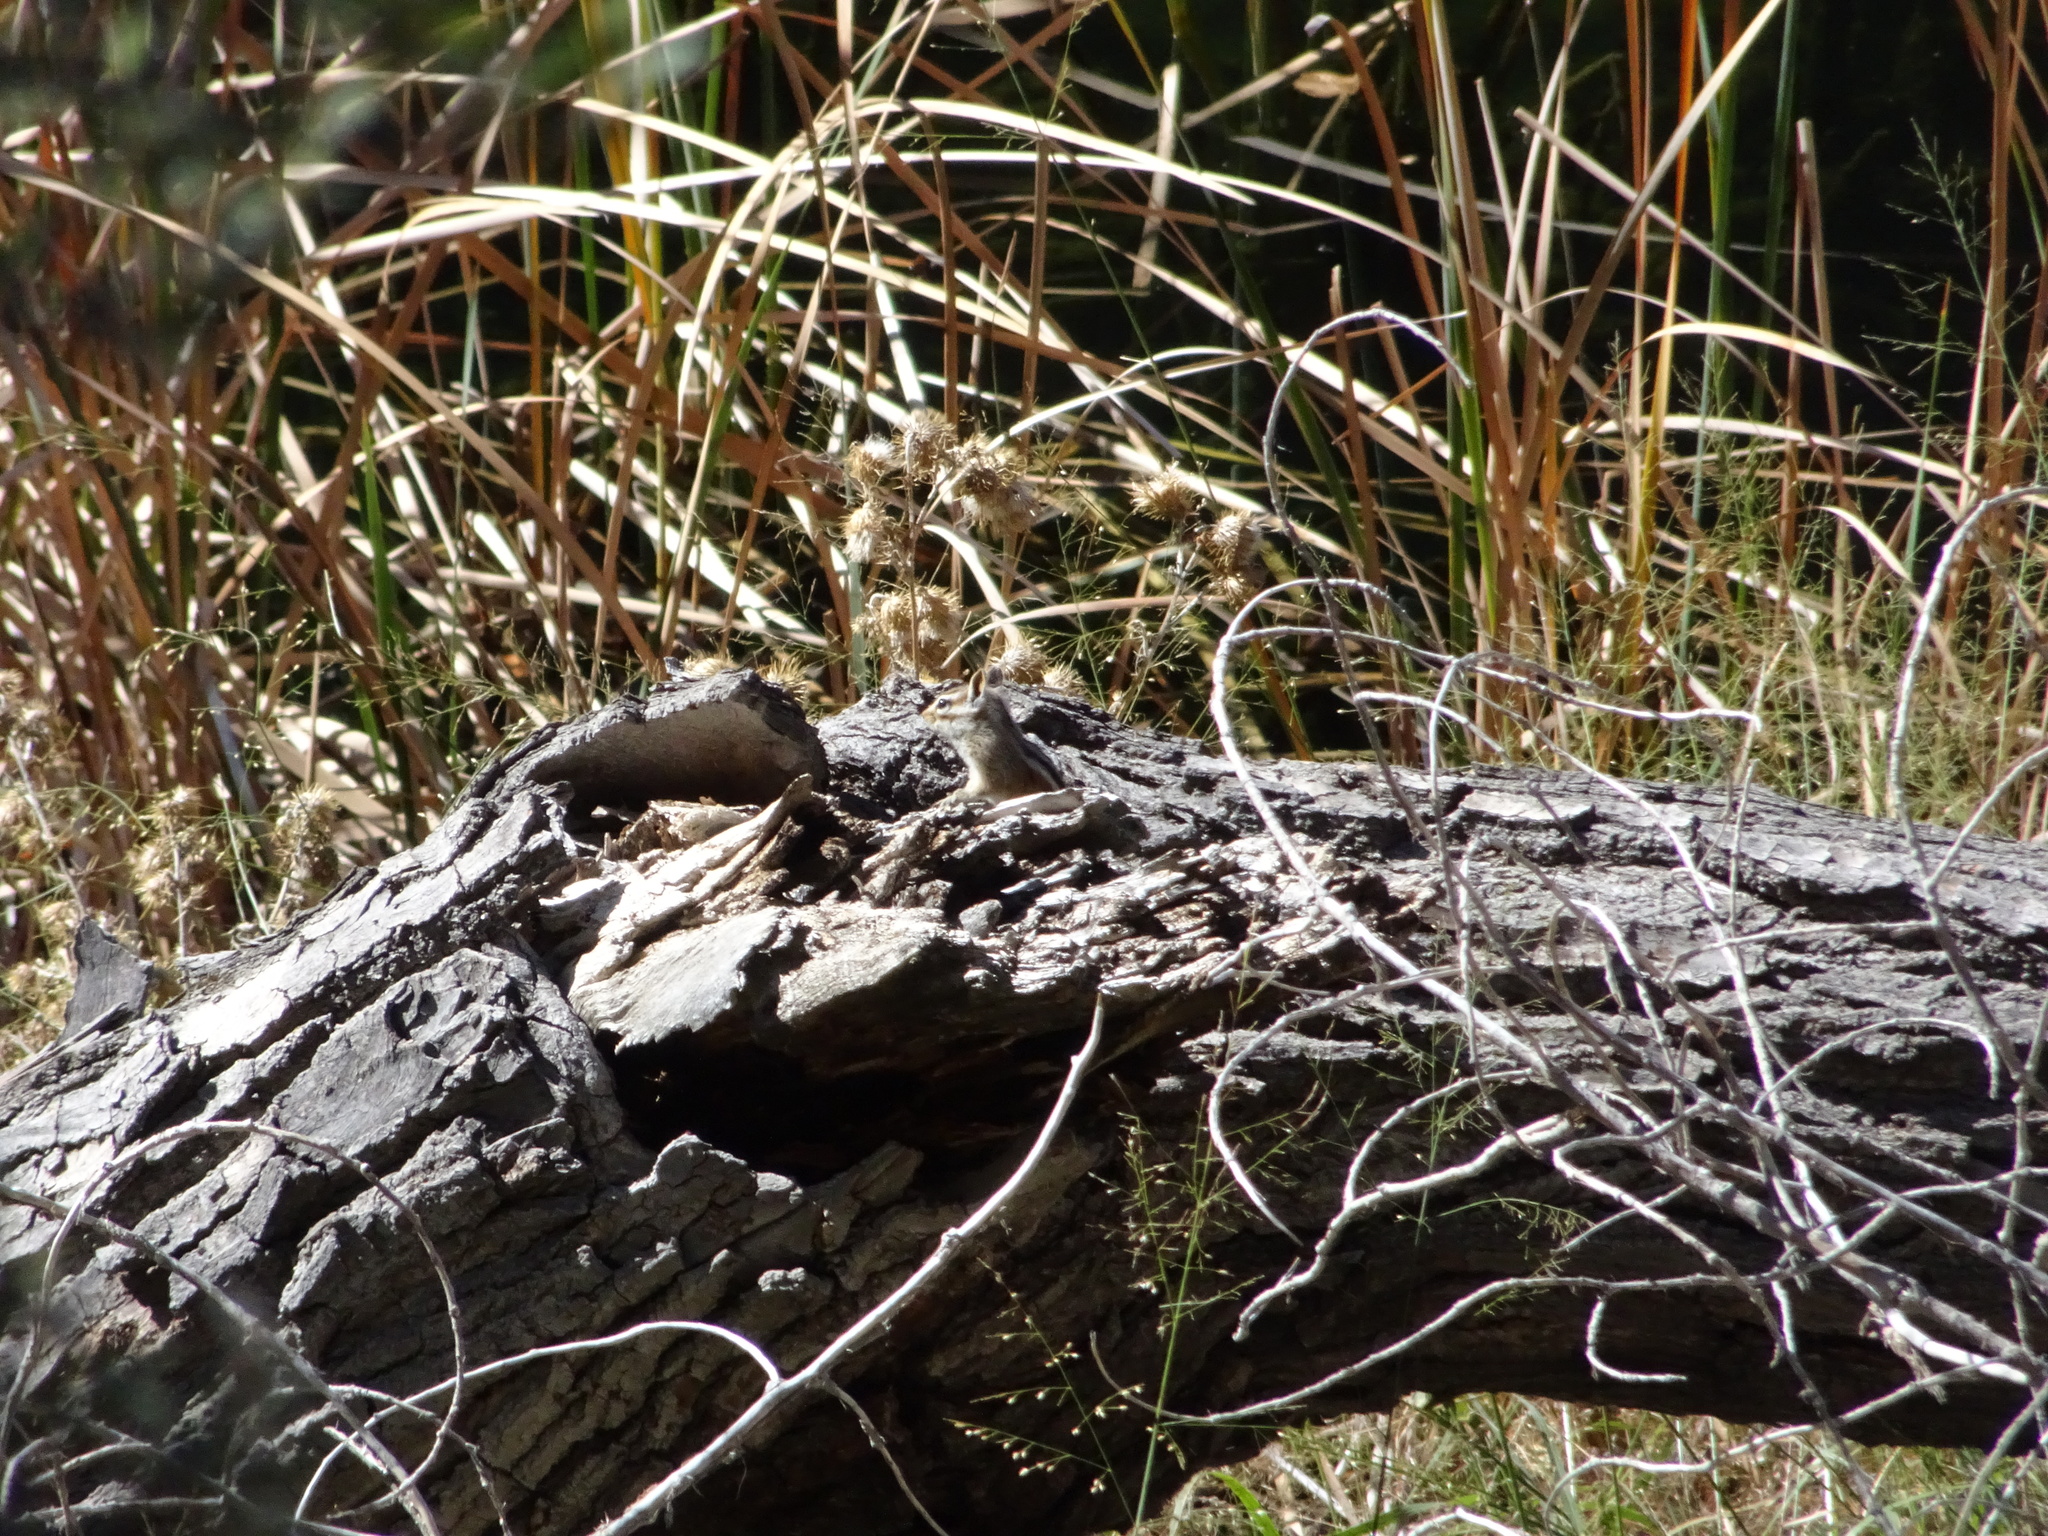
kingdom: Animalia
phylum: Chordata
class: Mammalia
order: Rodentia
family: Sciuridae
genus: Tamias
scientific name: Tamias quadrivittatus
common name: Colorado chipmunk
